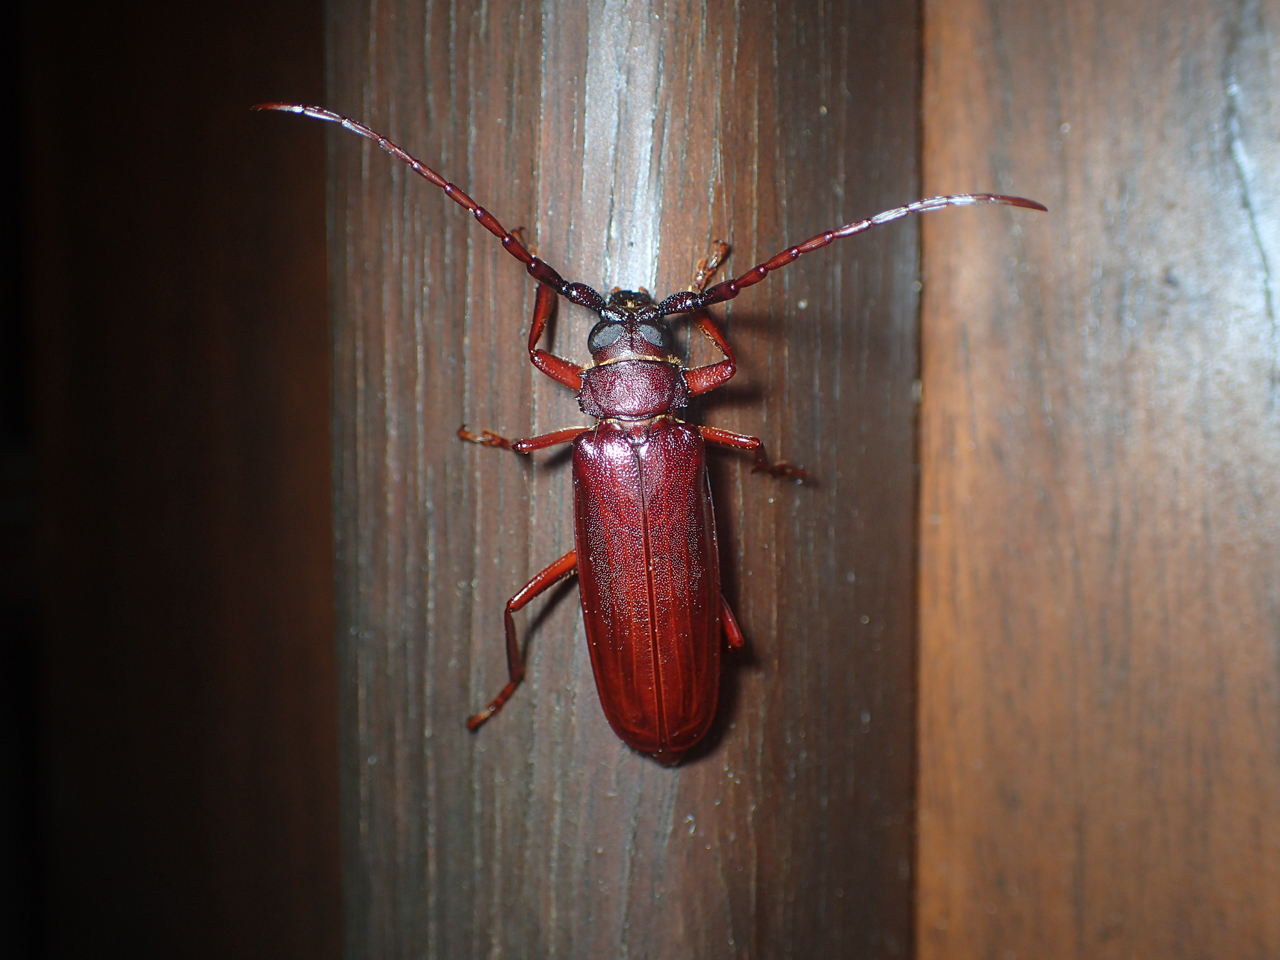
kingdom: Animalia
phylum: Arthropoda
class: Insecta
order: Coleoptera
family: Cerambycidae
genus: Orthosoma
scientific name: Orthosoma brunneum
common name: Brown prionid beetle
